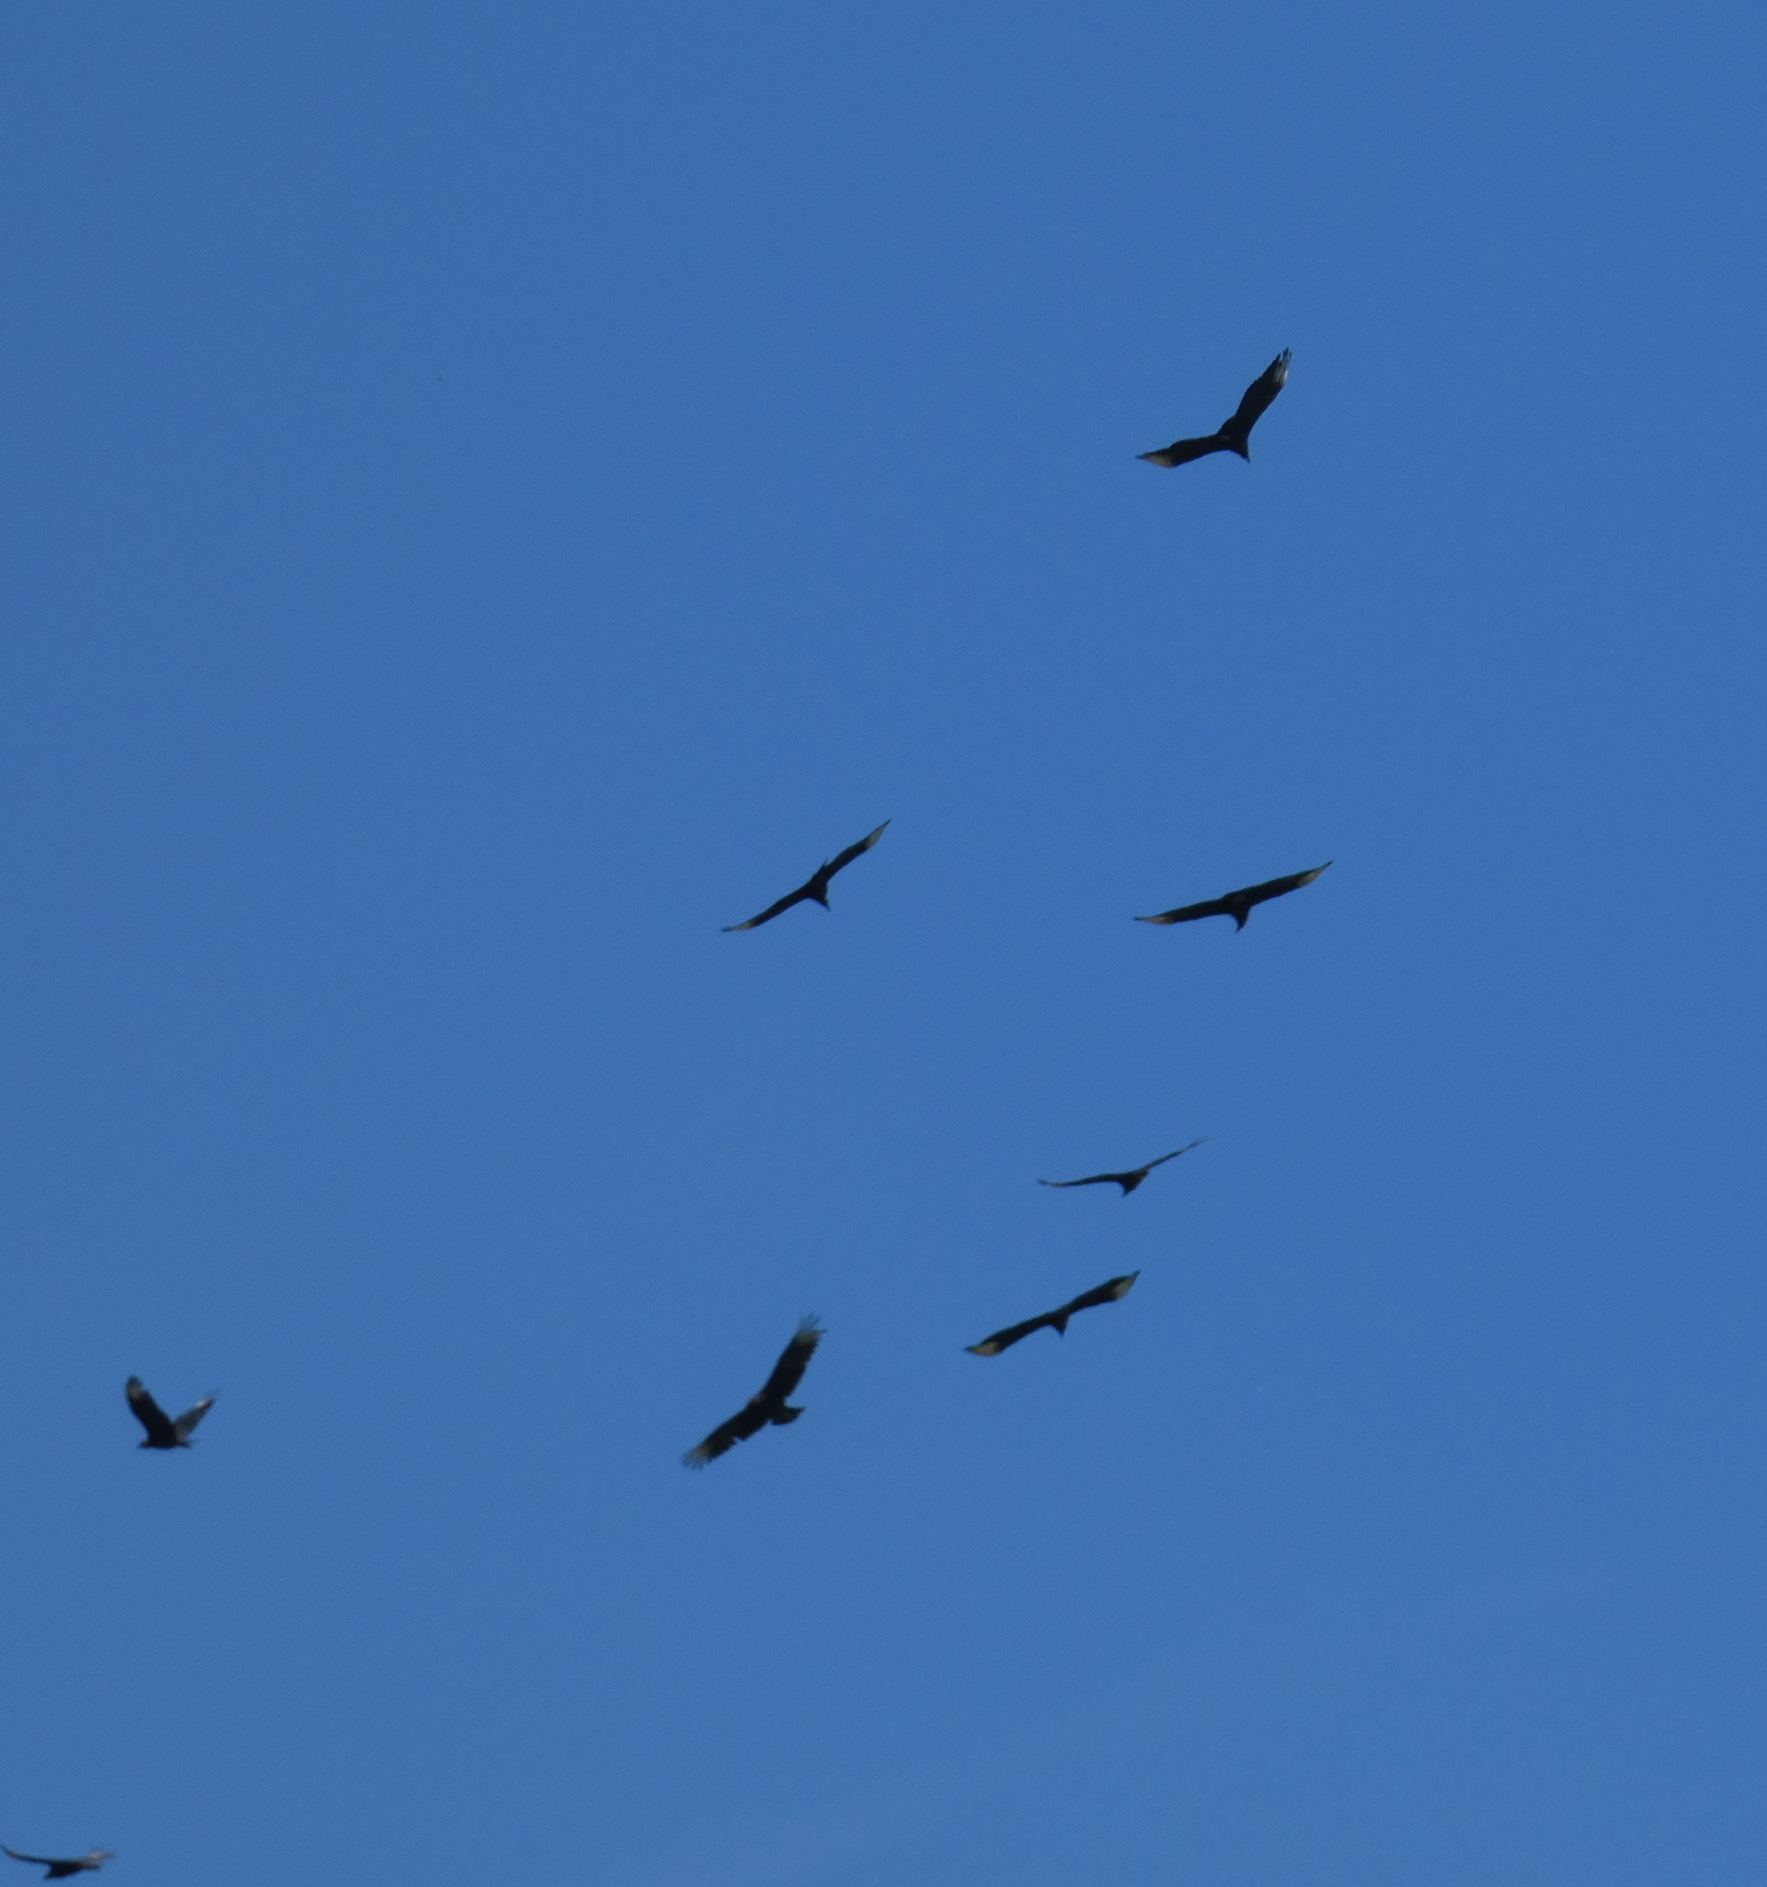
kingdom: Animalia
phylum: Chordata
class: Aves
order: Accipitriformes
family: Cathartidae
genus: Coragyps
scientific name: Coragyps atratus
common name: Black vulture
